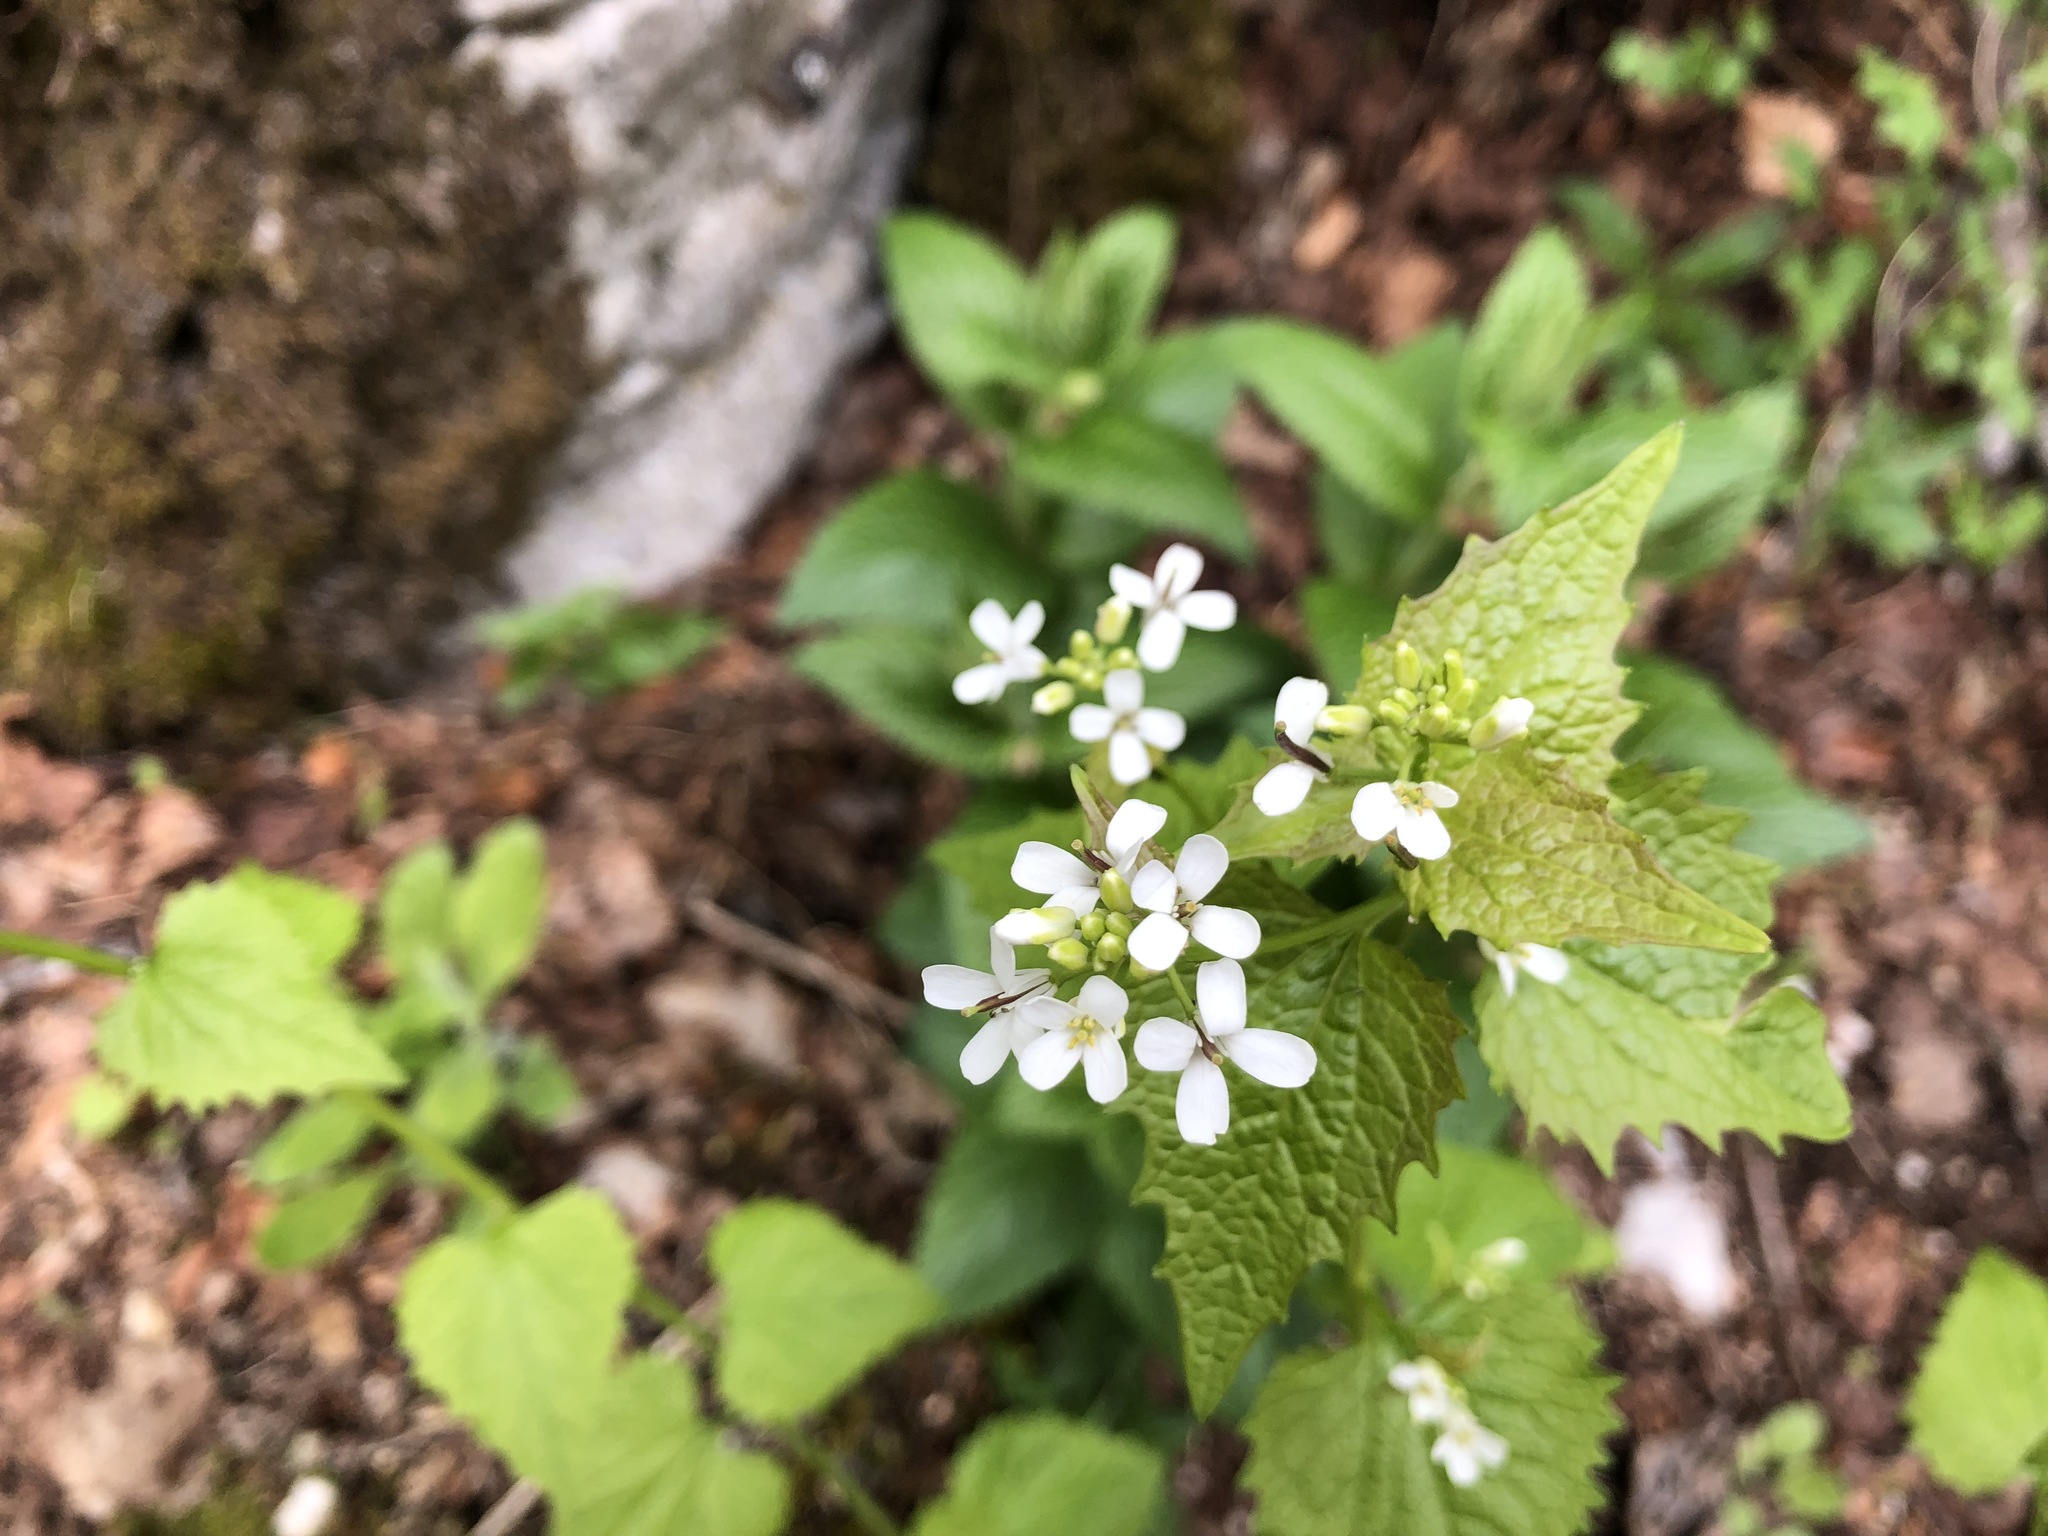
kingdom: Plantae
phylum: Tracheophyta
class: Magnoliopsida
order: Brassicales
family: Brassicaceae
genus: Alliaria
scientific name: Alliaria petiolata
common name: Garlic mustard
